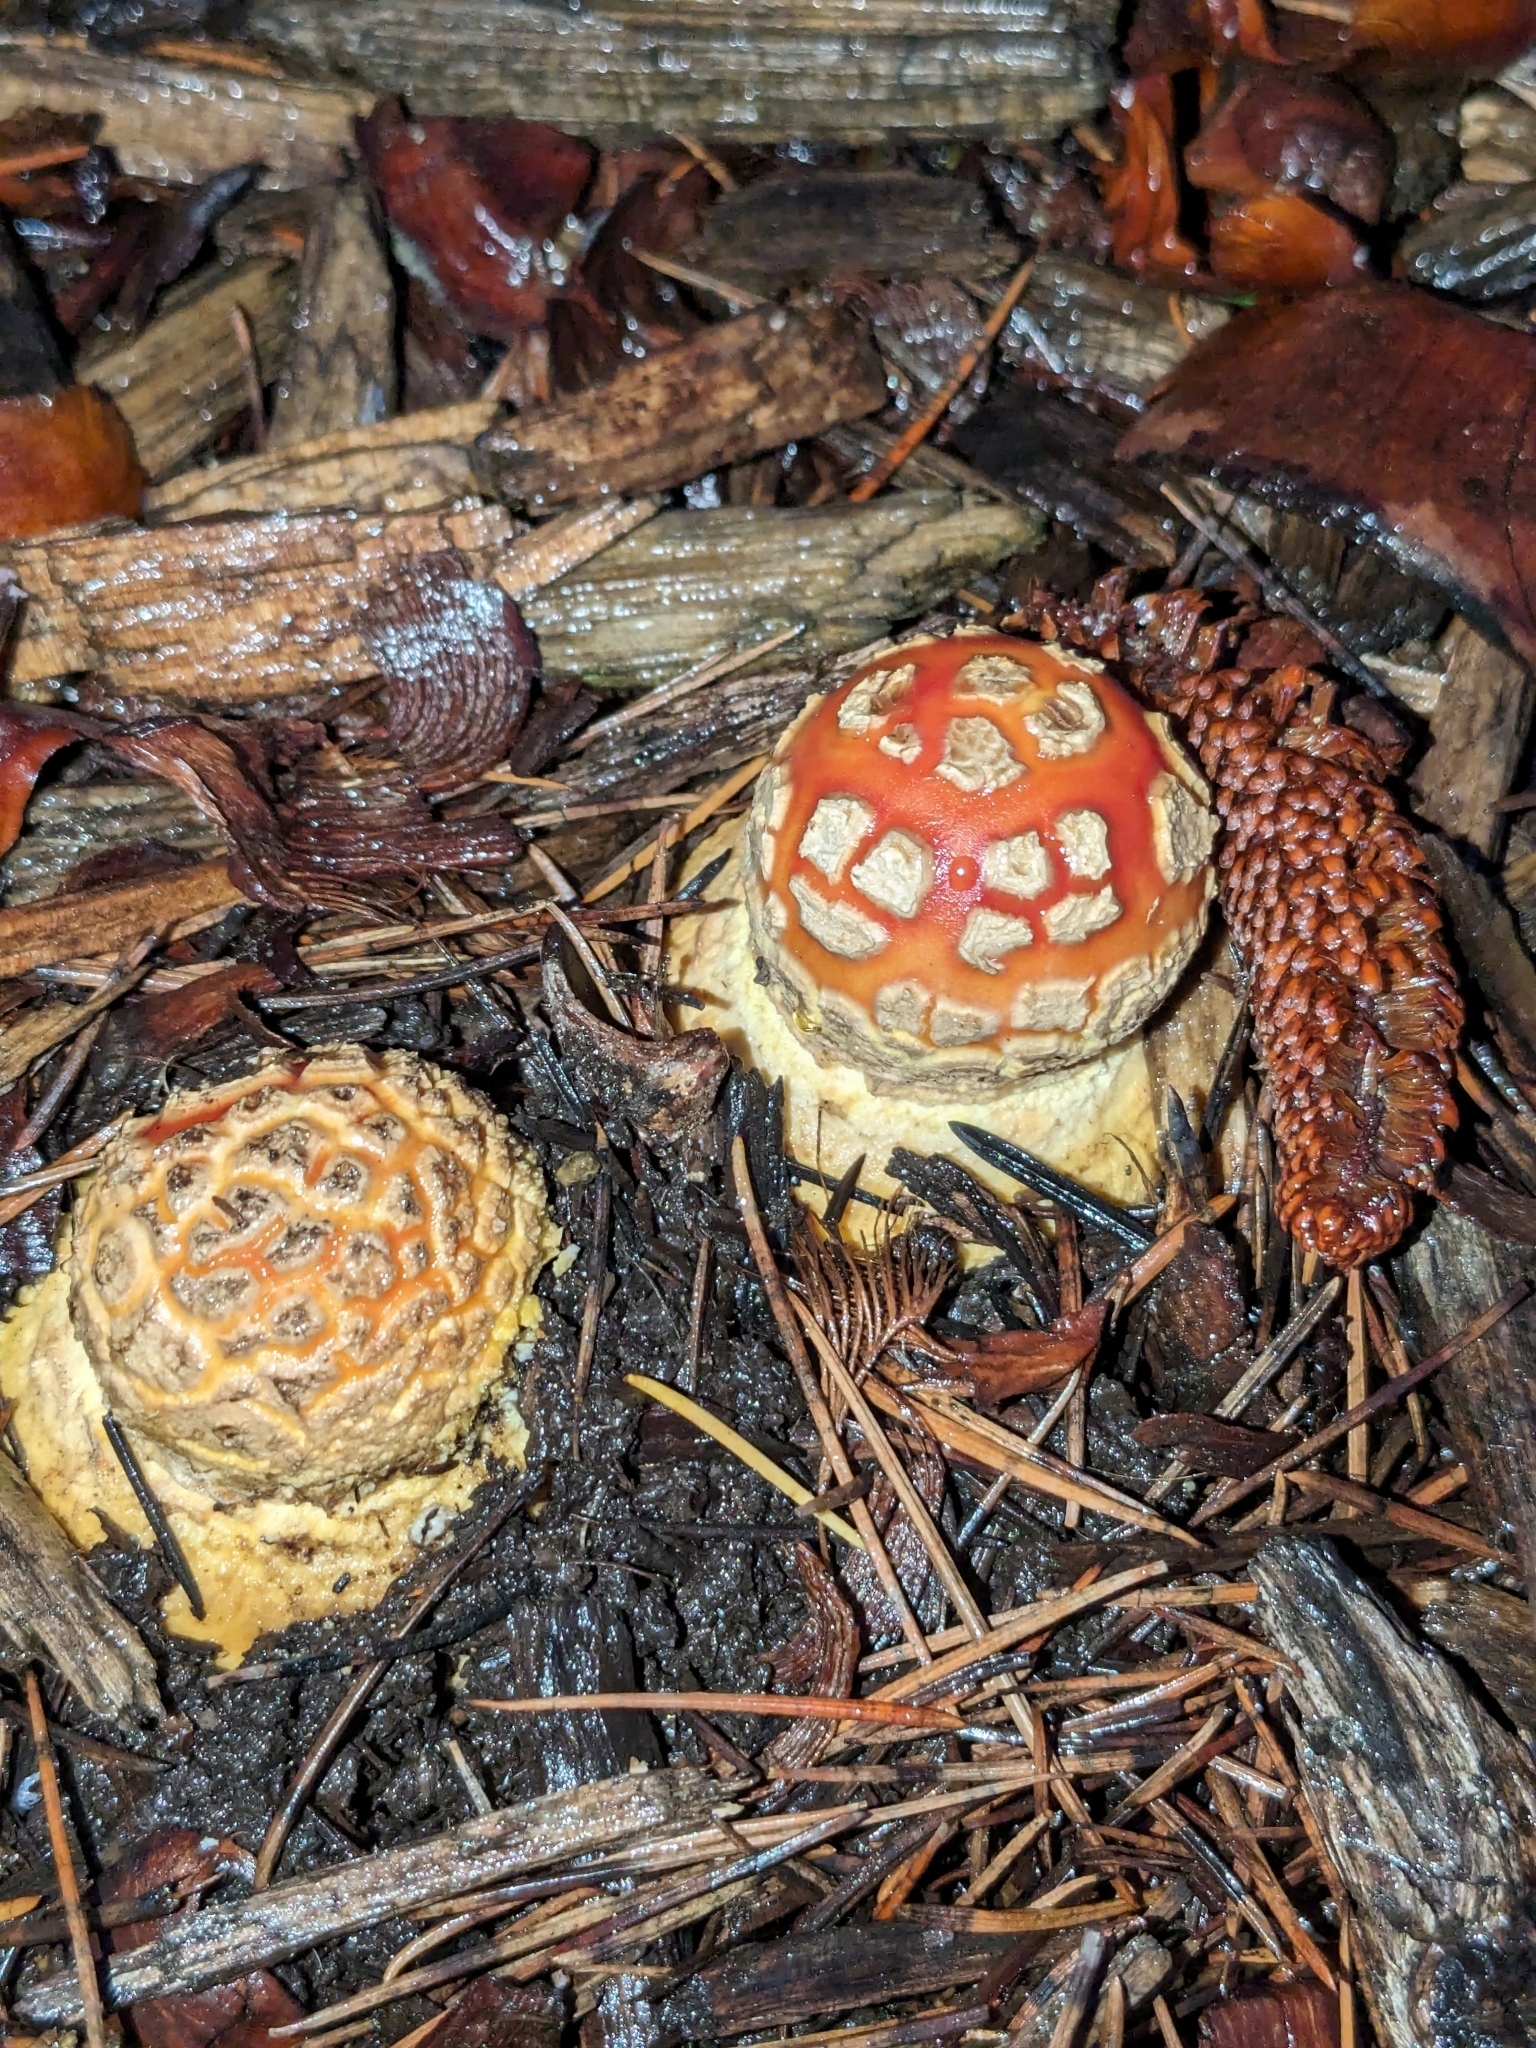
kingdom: Fungi
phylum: Basidiomycota
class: Agaricomycetes
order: Agaricales
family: Amanitaceae
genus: Amanita
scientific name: Amanita muscaria
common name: Fly agaric
